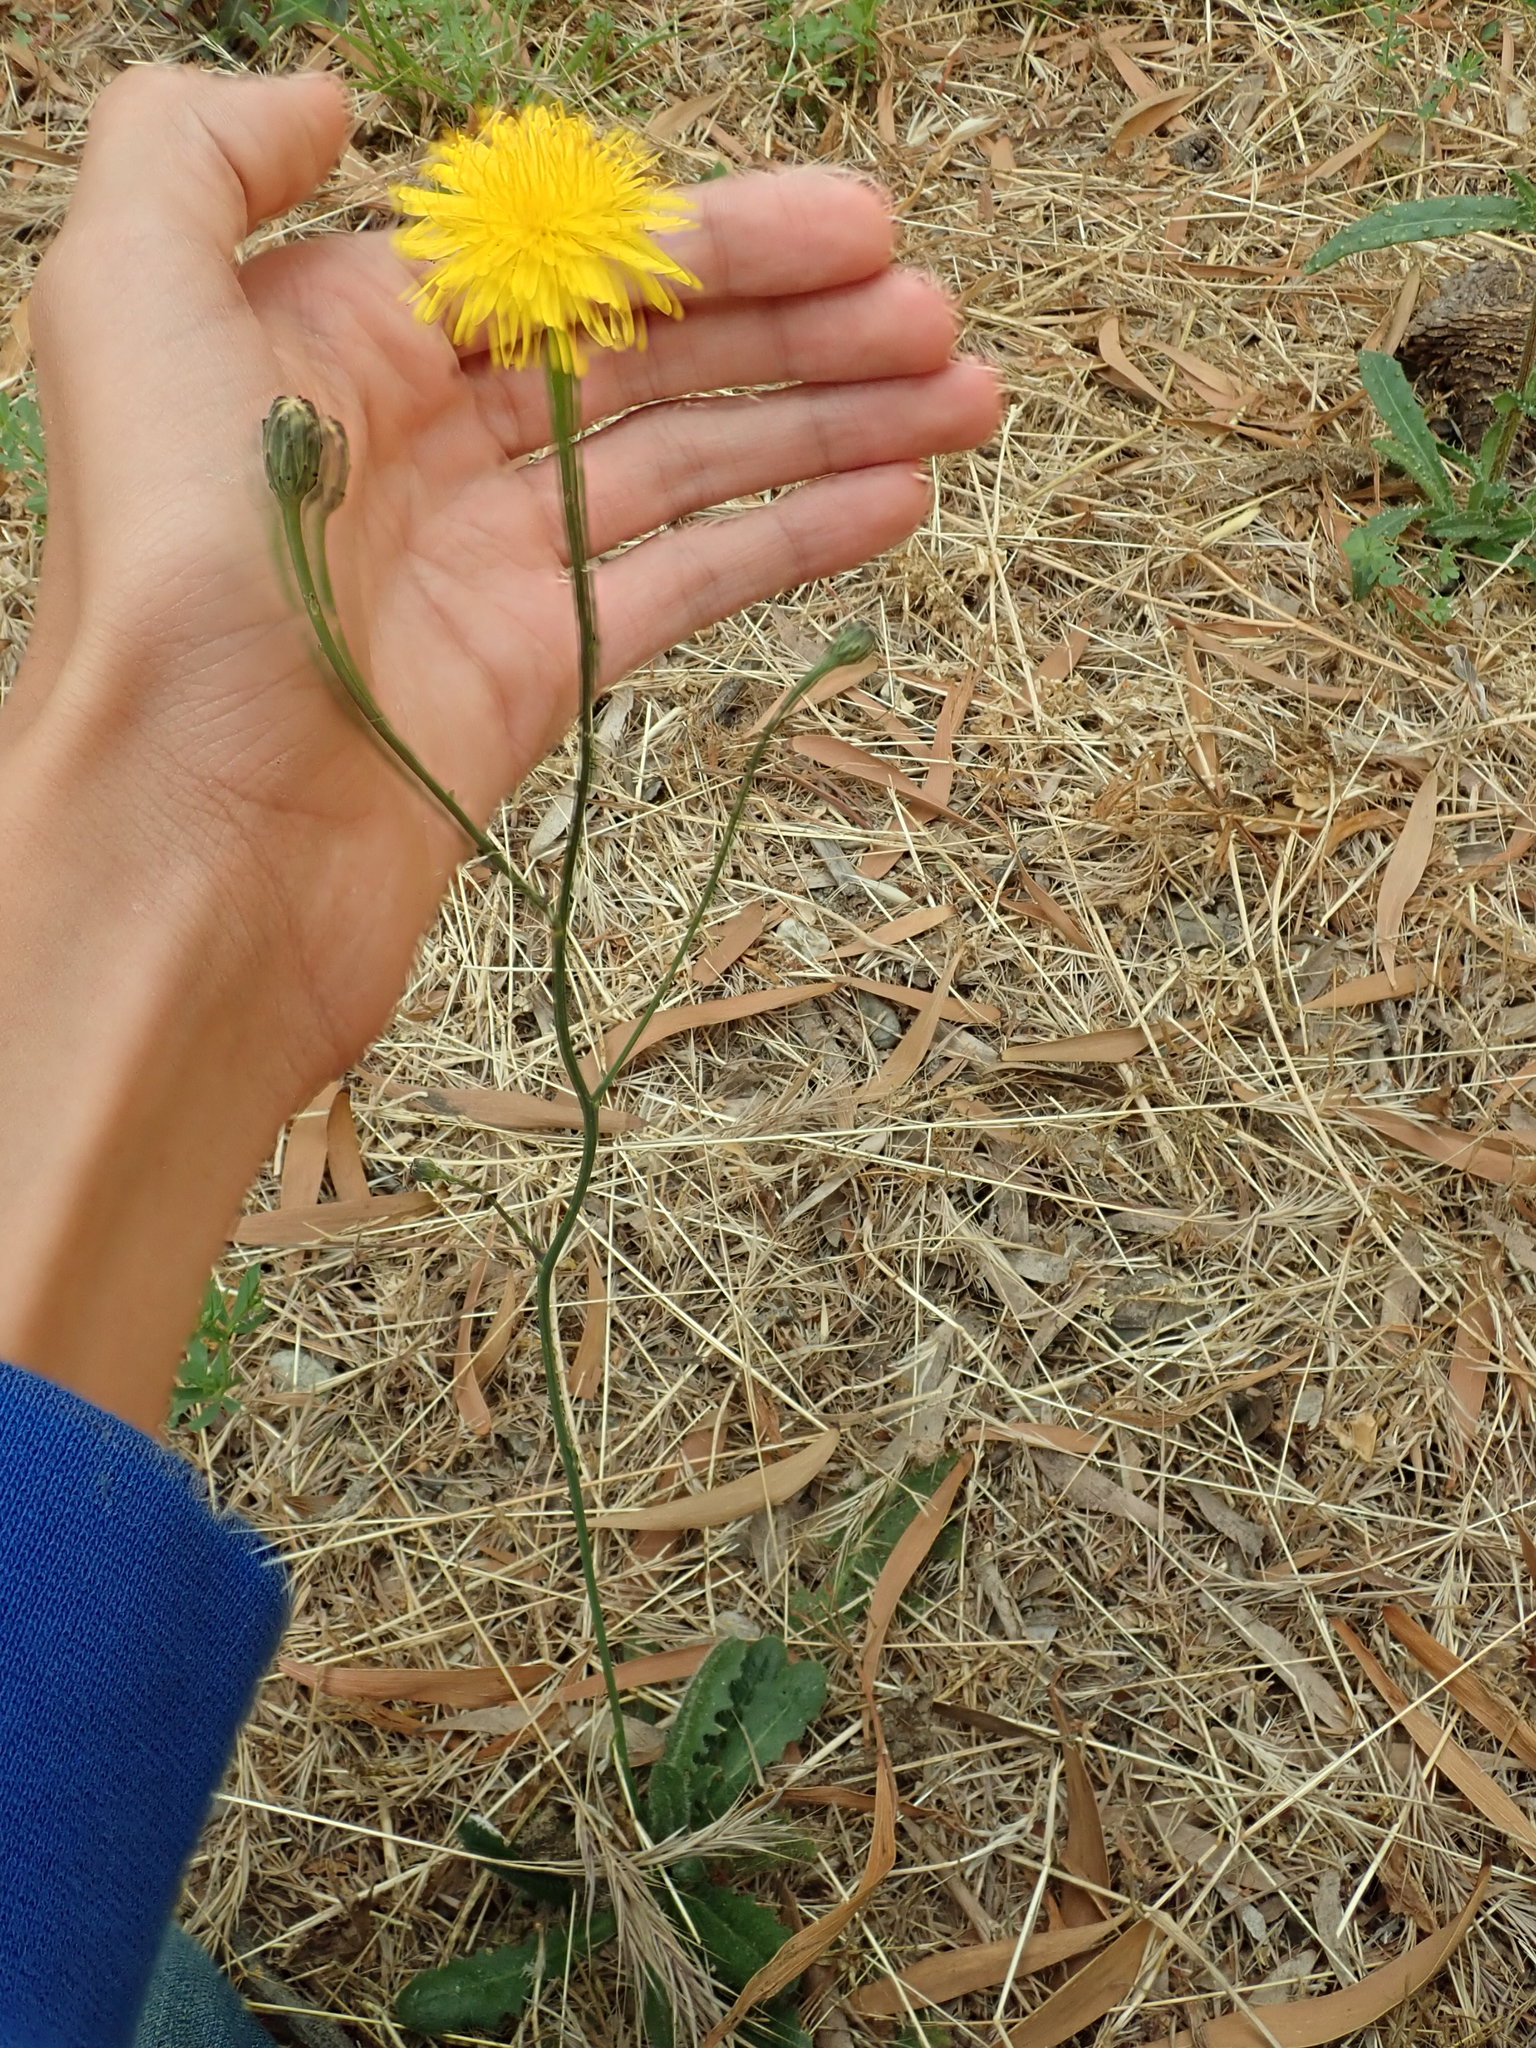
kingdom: Plantae
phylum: Tracheophyta
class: Magnoliopsida
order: Asterales
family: Asteraceae
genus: Hypochaeris
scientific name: Hypochaeris radicata
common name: Flatweed
